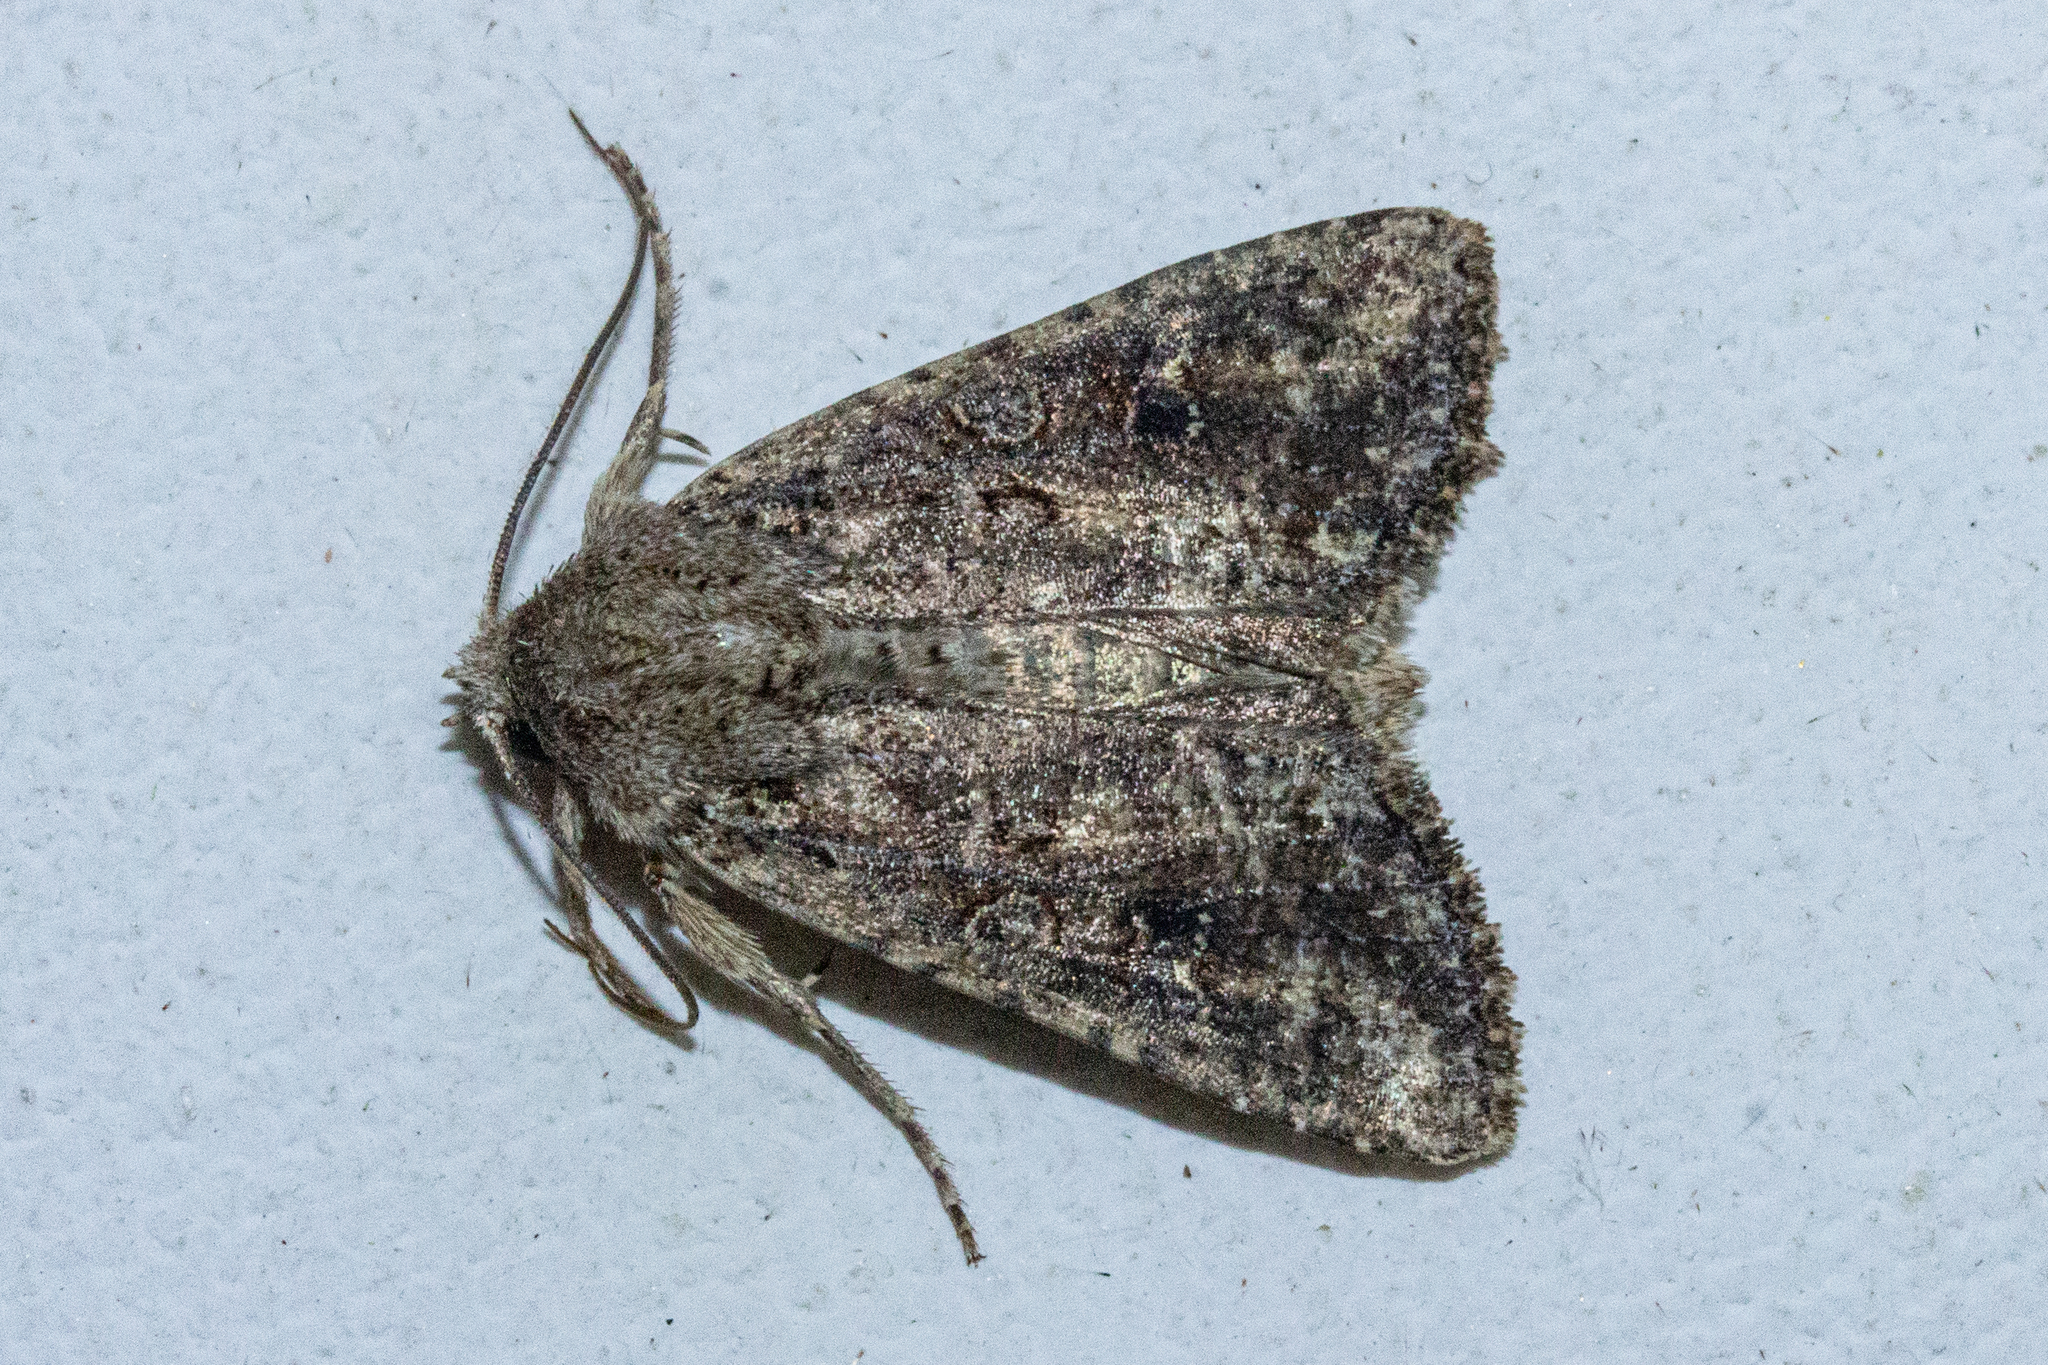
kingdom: Animalia
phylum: Arthropoda
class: Insecta
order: Lepidoptera
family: Noctuidae
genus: Ichneutica
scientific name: Ichneutica morosa
